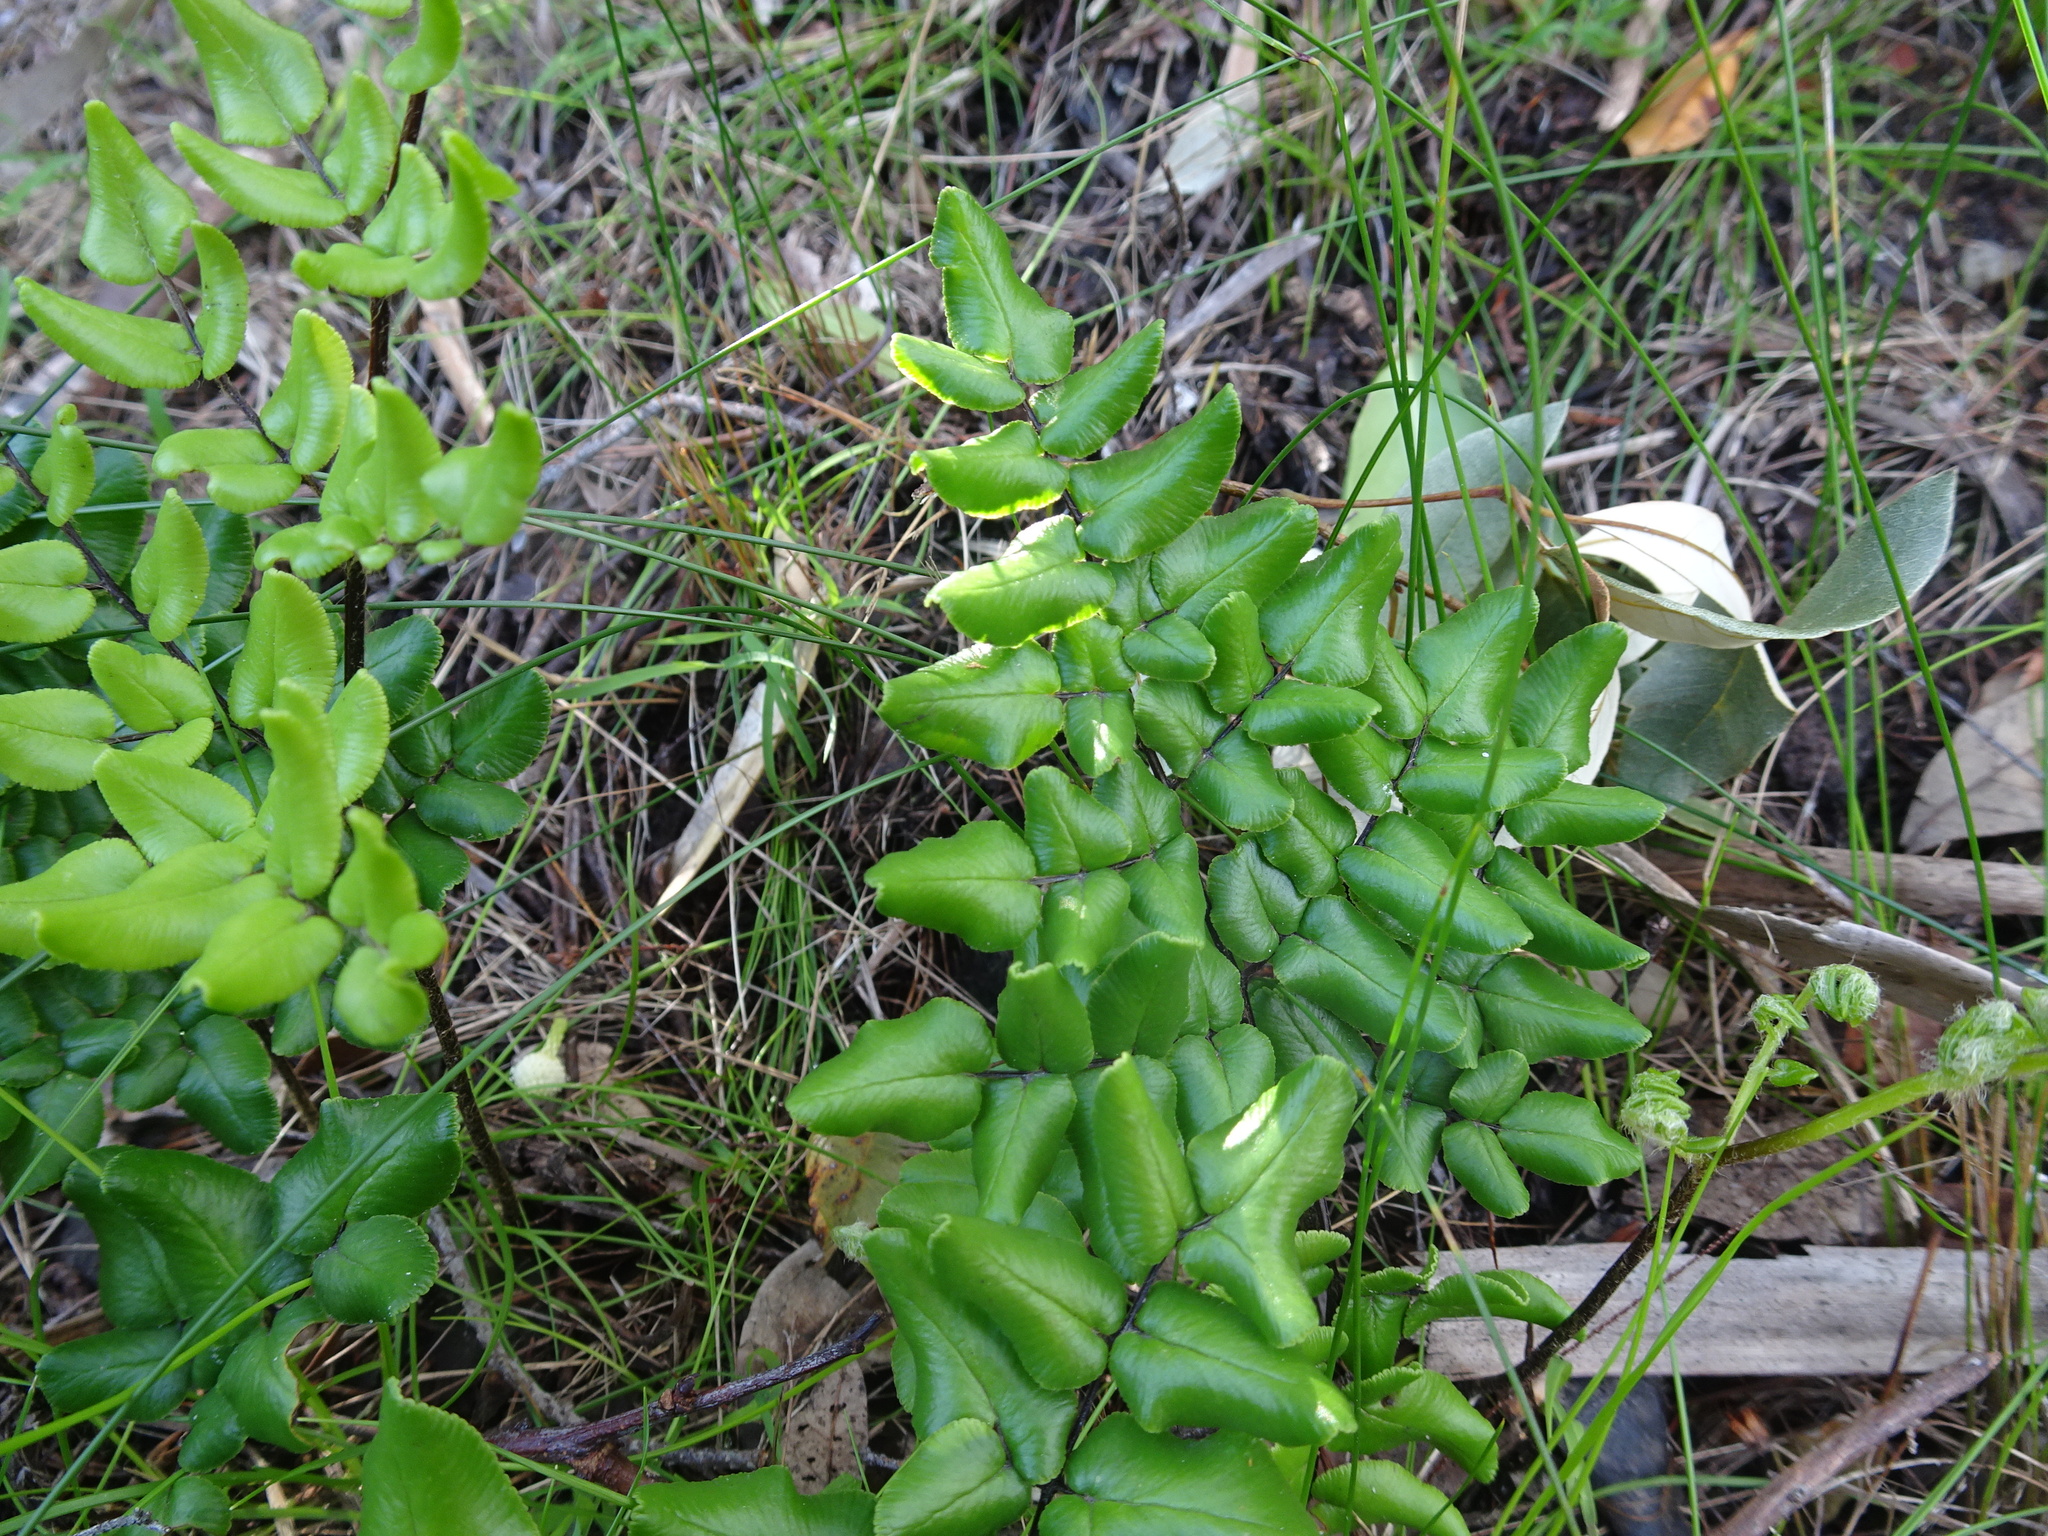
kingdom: Plantae
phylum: Tracheophyta
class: Polypodiopsida
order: Polypodiales
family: Pteridaceae
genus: Pellaea
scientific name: Pellaea pteroides
